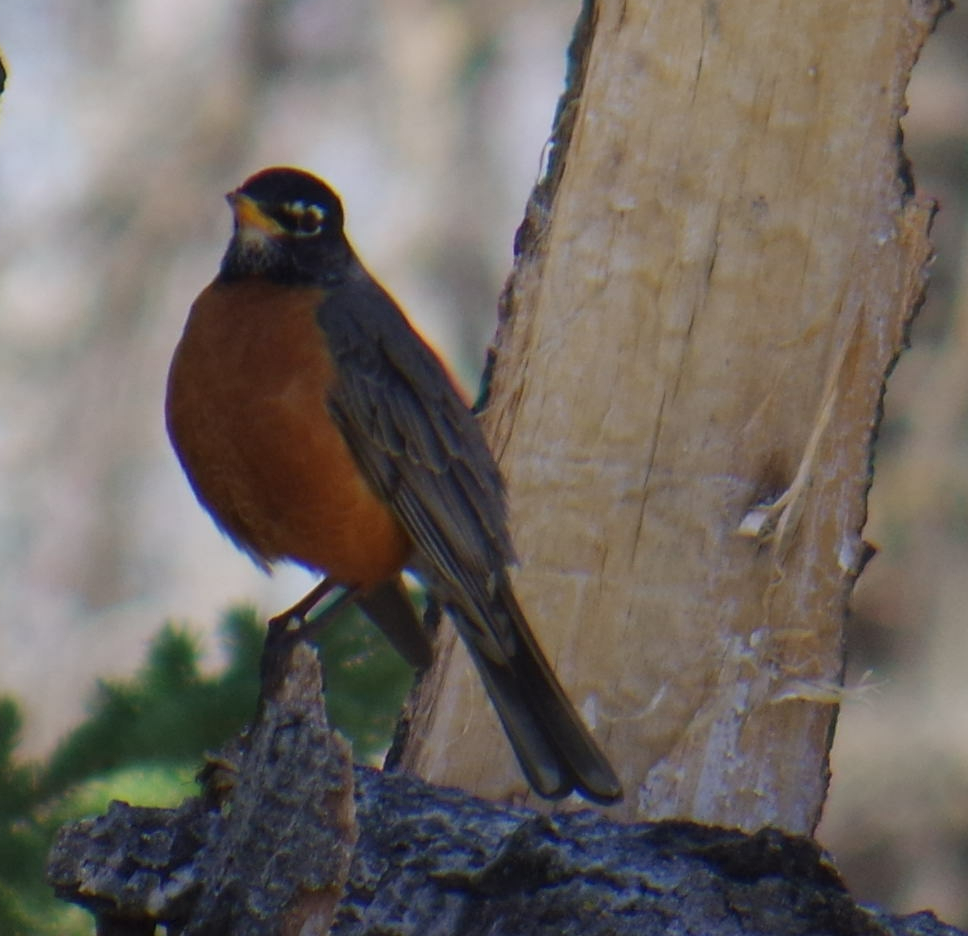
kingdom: Animalia
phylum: Chordata
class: Aves
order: Passeriformes
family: Turdidae
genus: Turdus
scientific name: Turdus migratorius
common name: American robin
